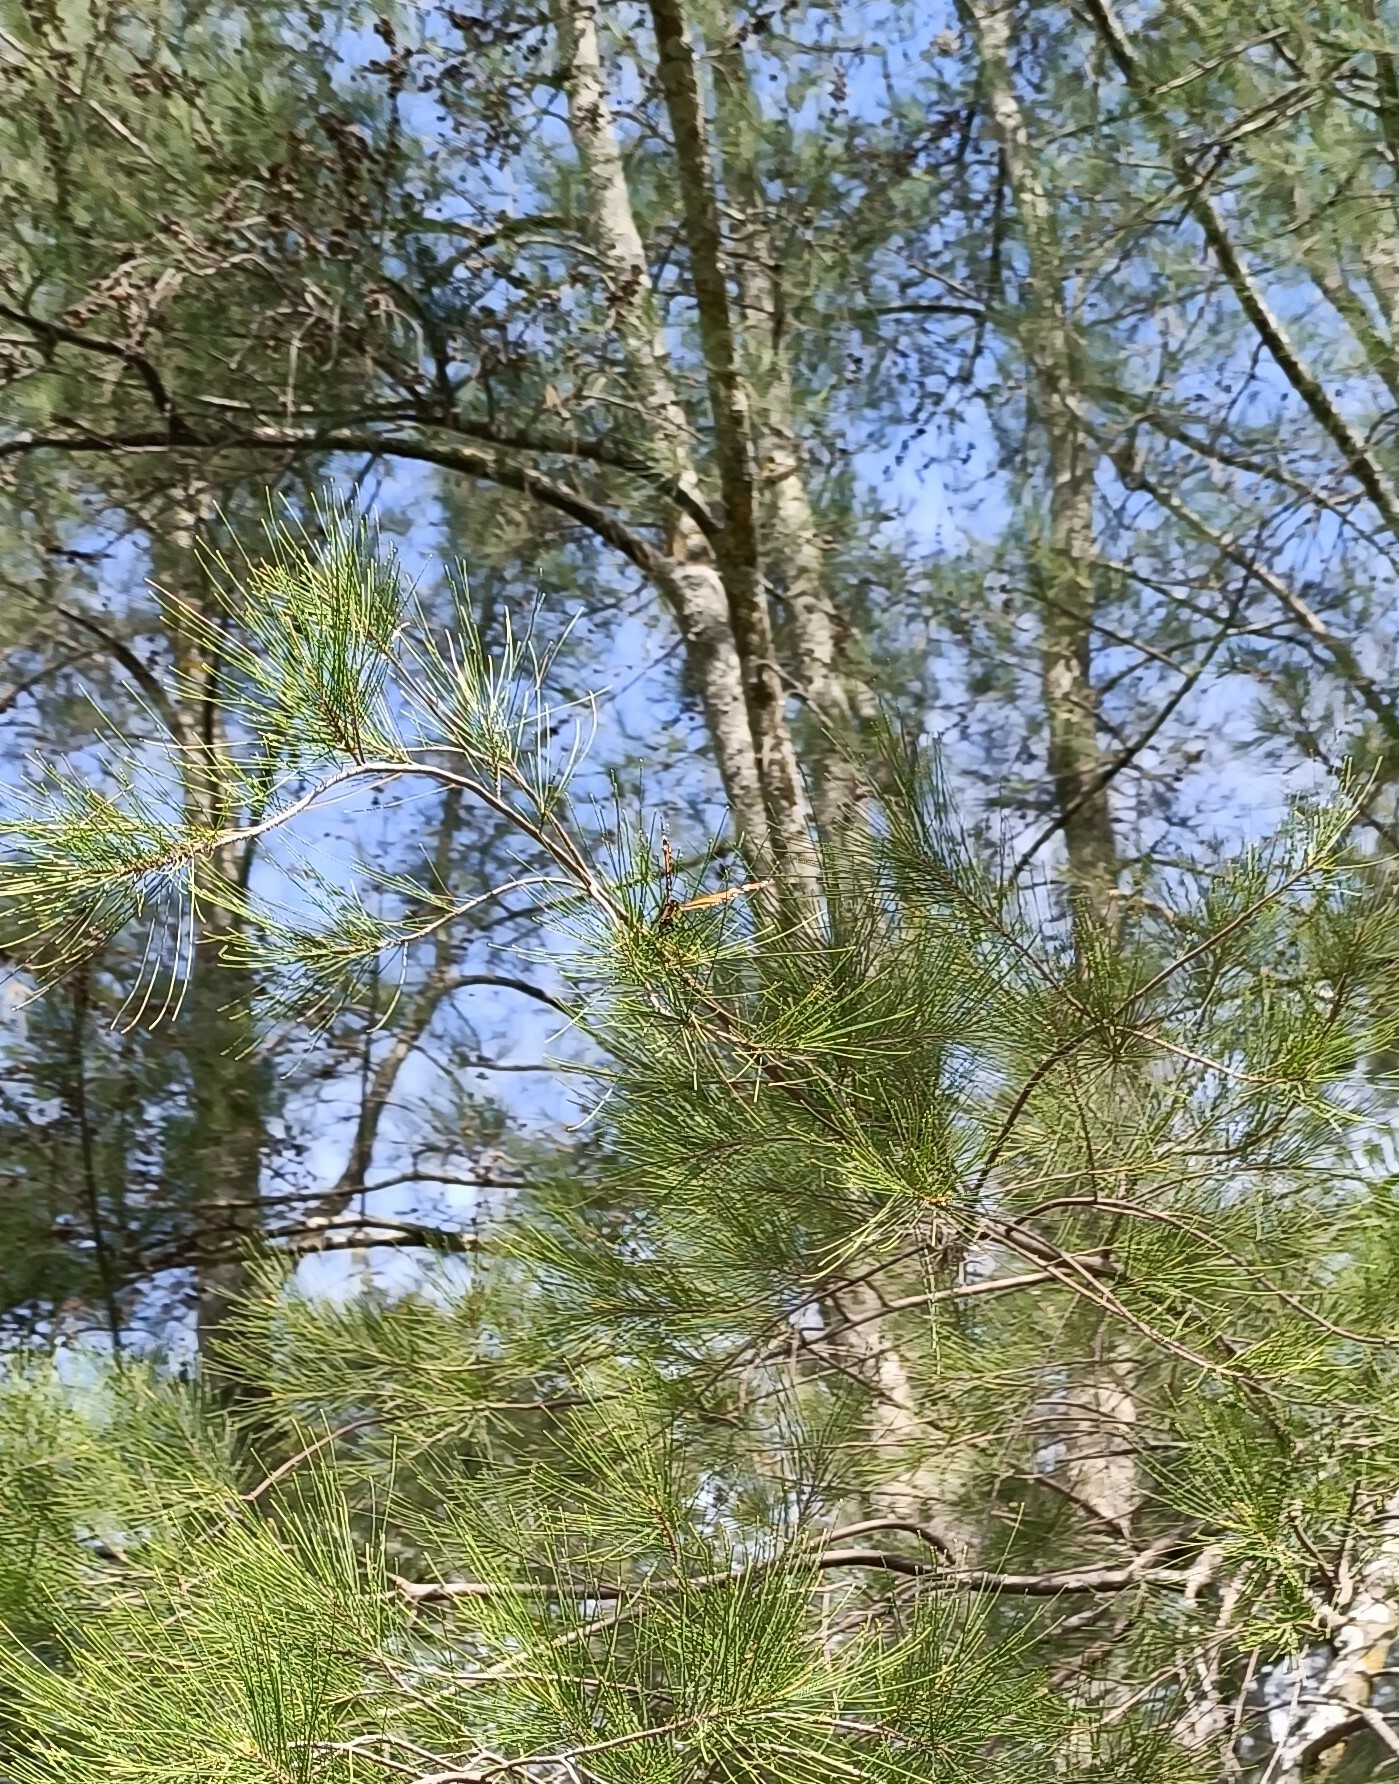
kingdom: Animalia
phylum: Arthropoda
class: Insecta
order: Lepidoptera
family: Nymphalidae
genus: Danaus
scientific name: Danaus plexippus
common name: Monarch
